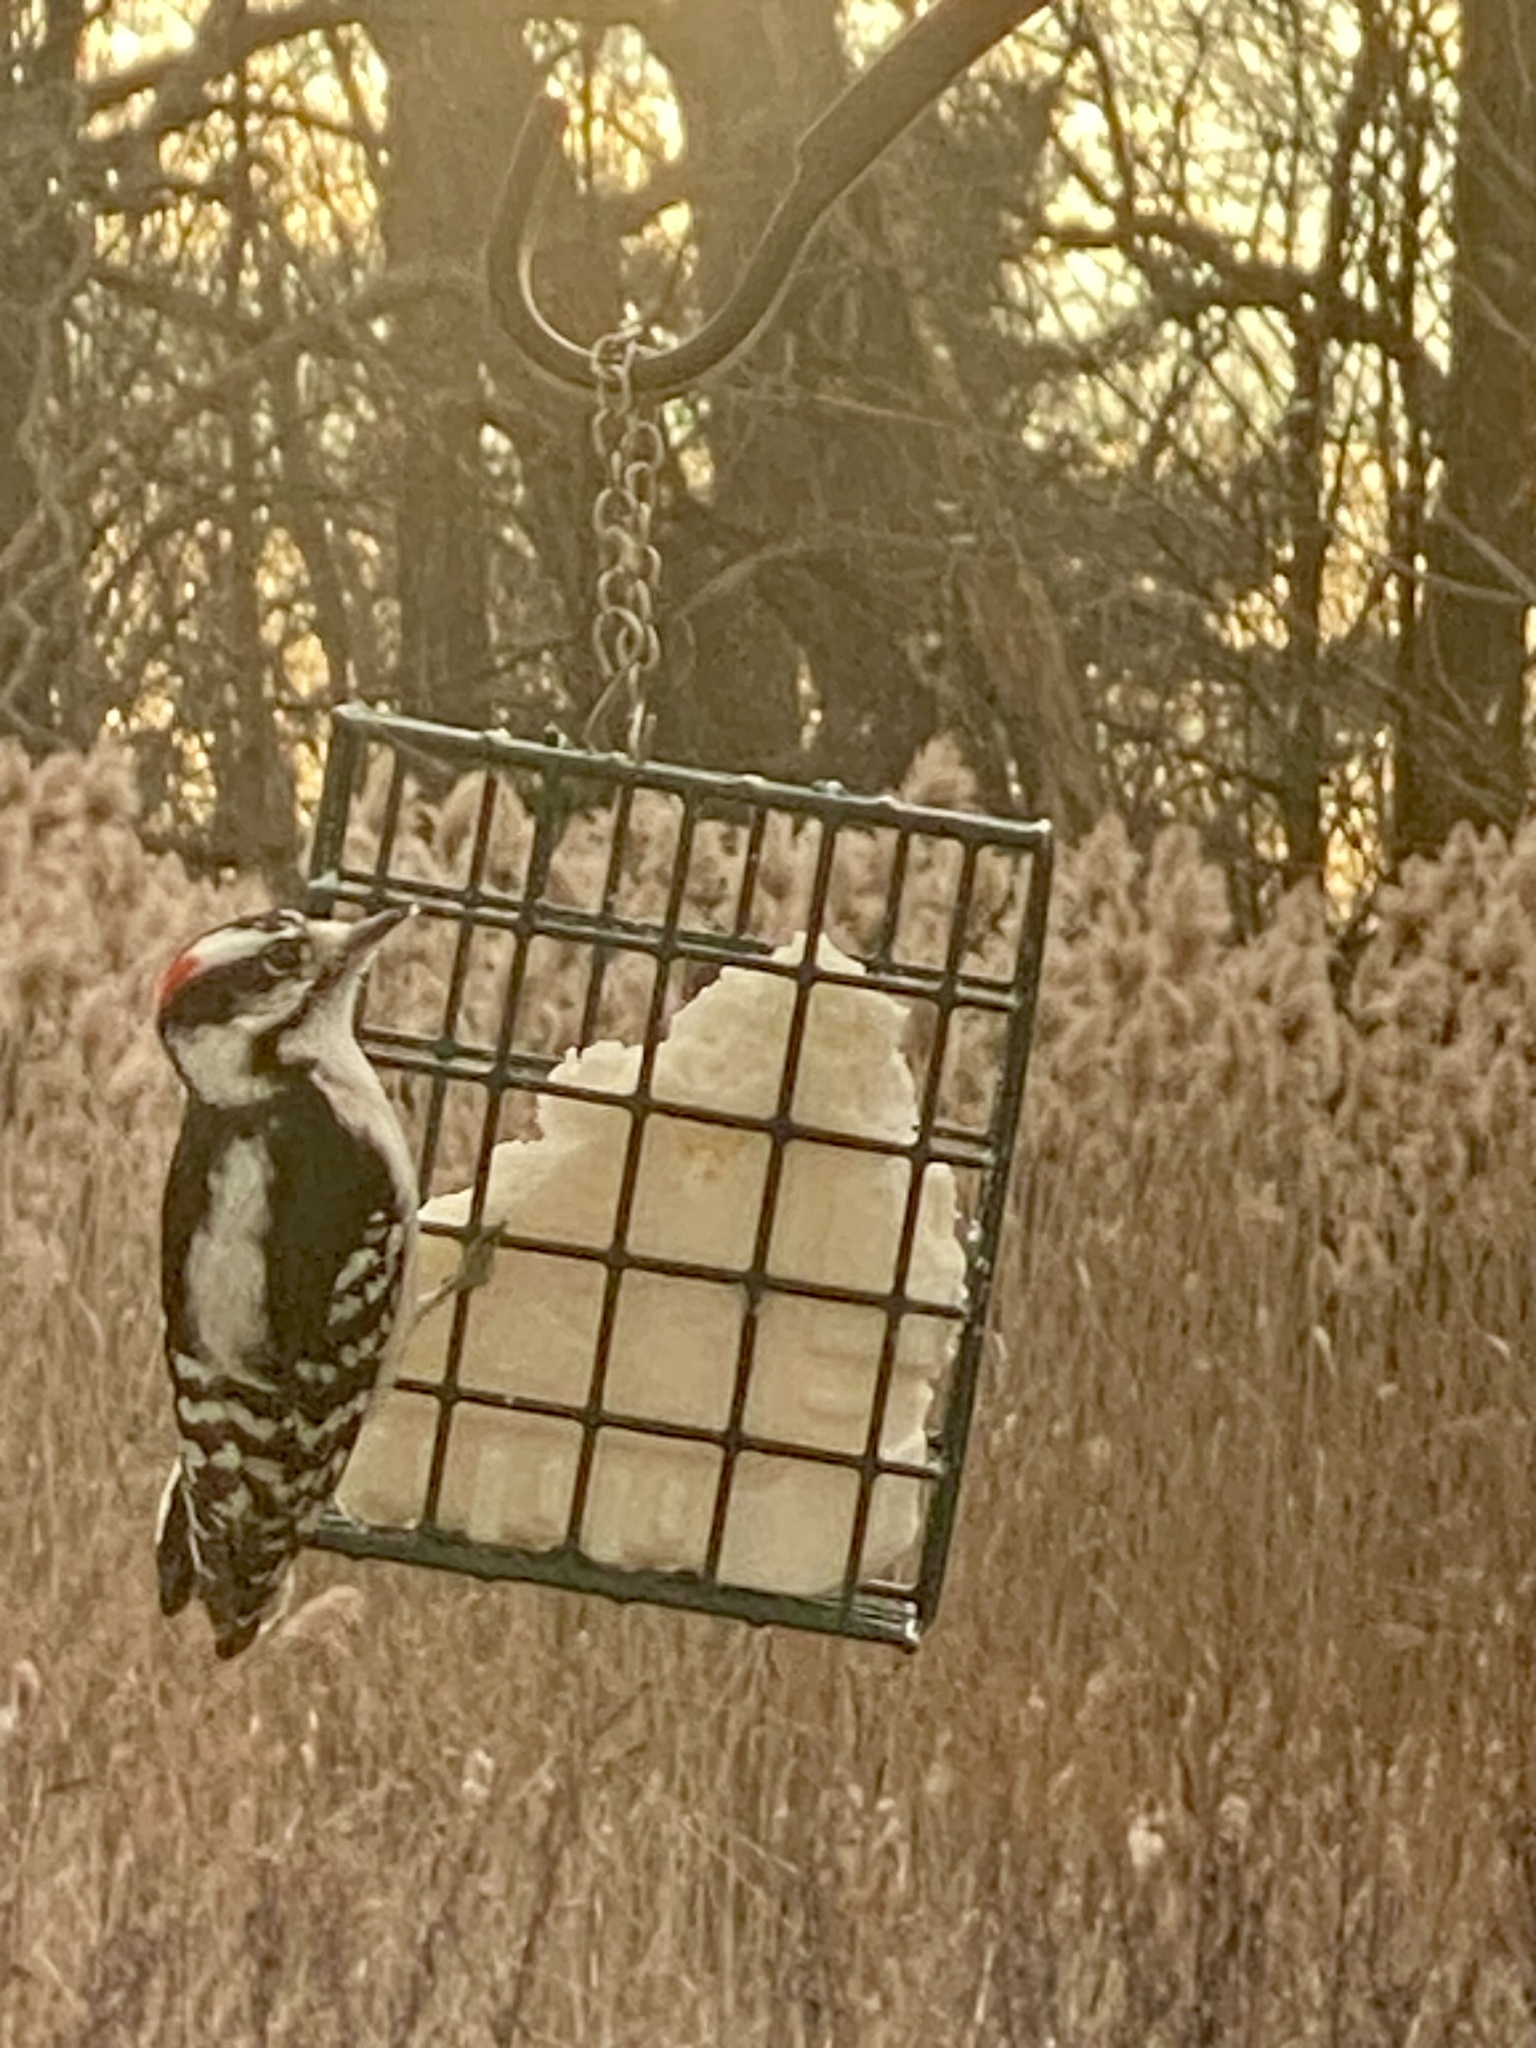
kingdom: Animalia
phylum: Chordata
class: Aves
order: Piciformes
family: Picidae
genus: Dryobates
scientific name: Dryobates pubescens
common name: Downy woodpecker
